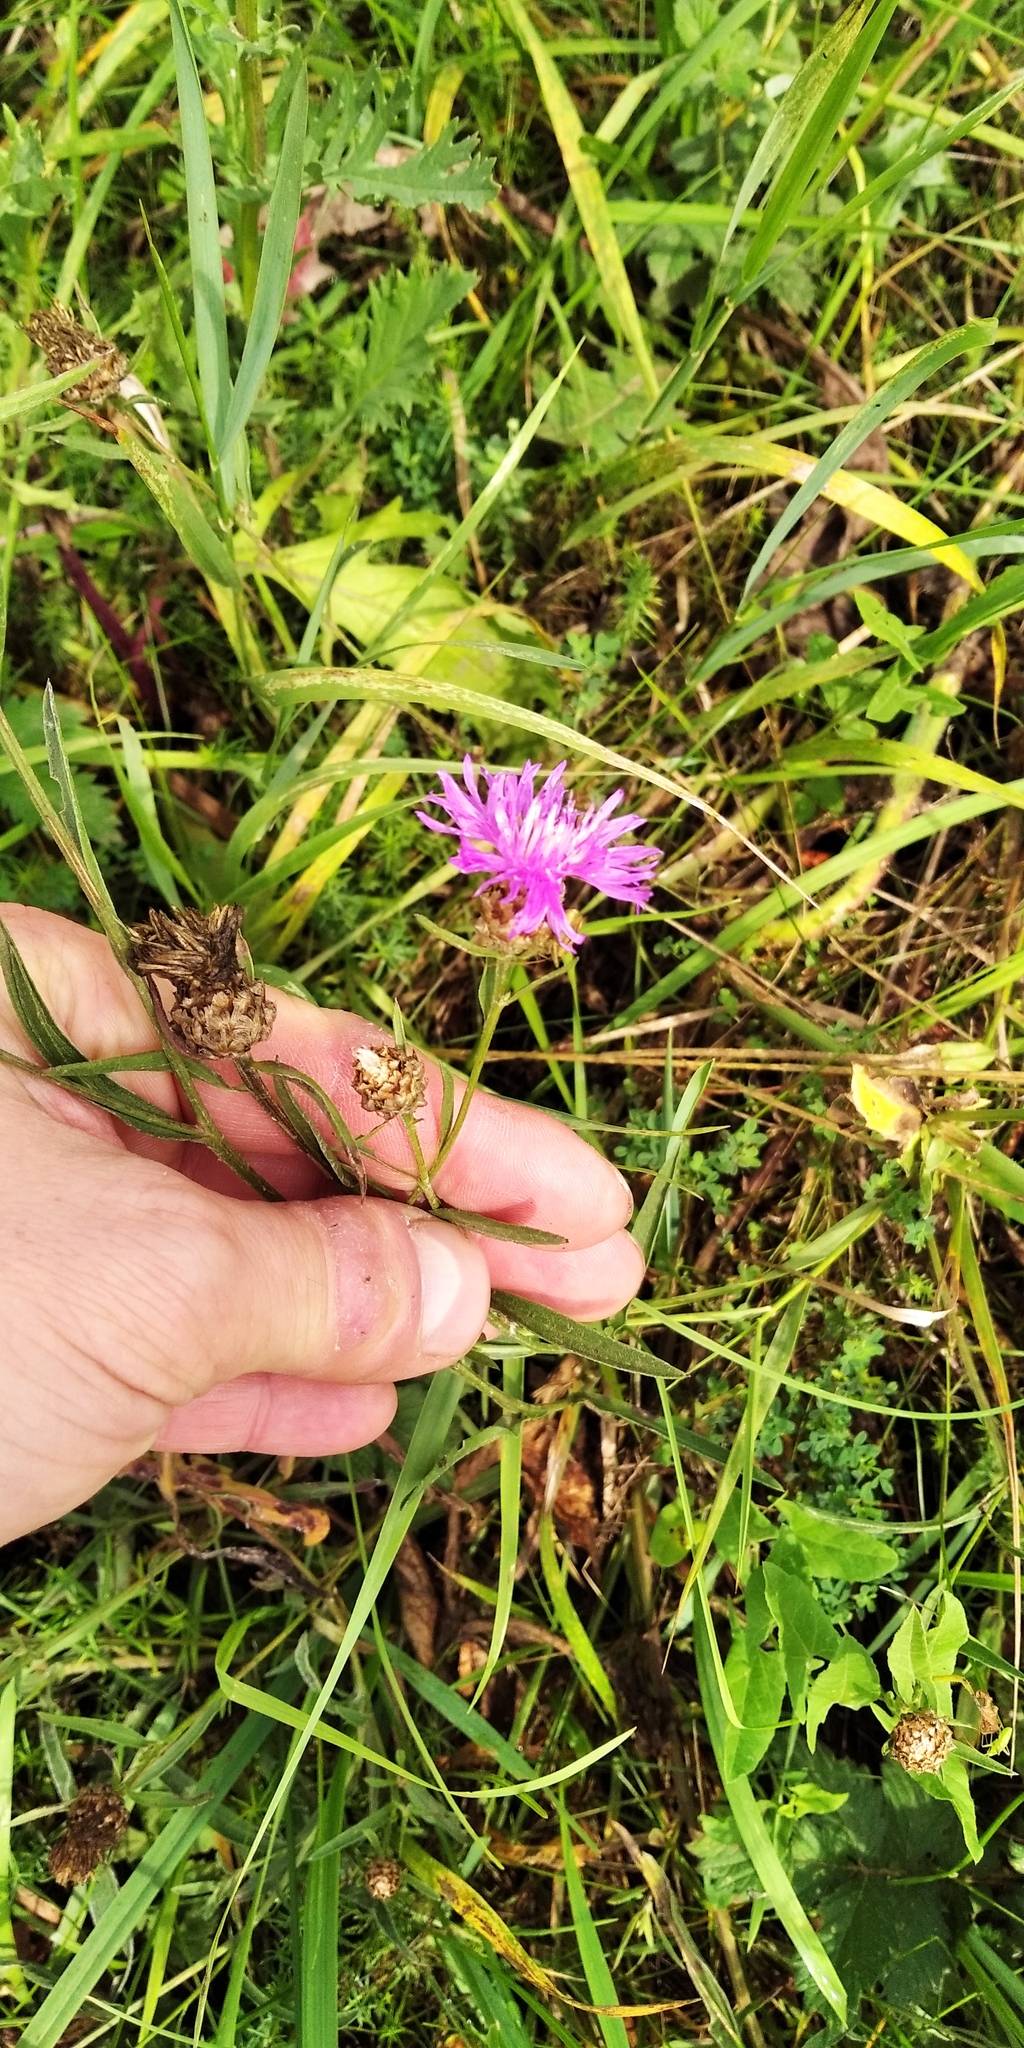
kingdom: Plantae
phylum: Tracheophyta
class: Magnoliopsida
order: Asterales
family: Asteraceae
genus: Centaurea
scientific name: Centaurea jacea
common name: Brown knapweed
